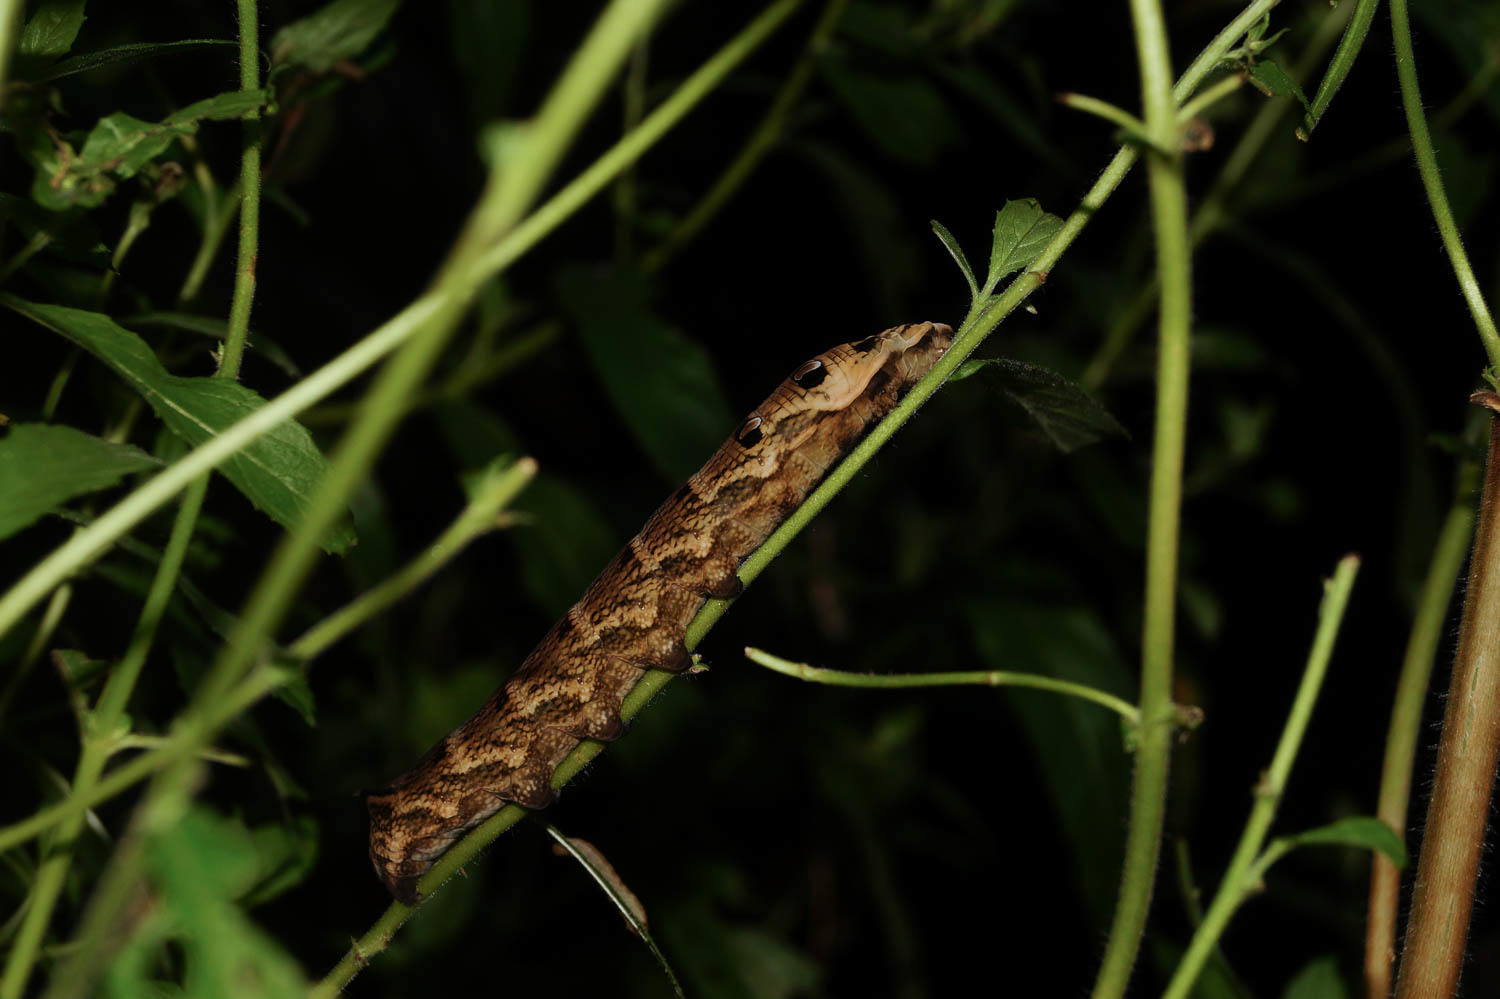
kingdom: Animalia
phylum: Arthropoda
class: Insecta
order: Lepidoptera
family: Sphingidae
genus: Deilephila
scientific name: Deilephila elpenor
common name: Elephant hawk-moth
